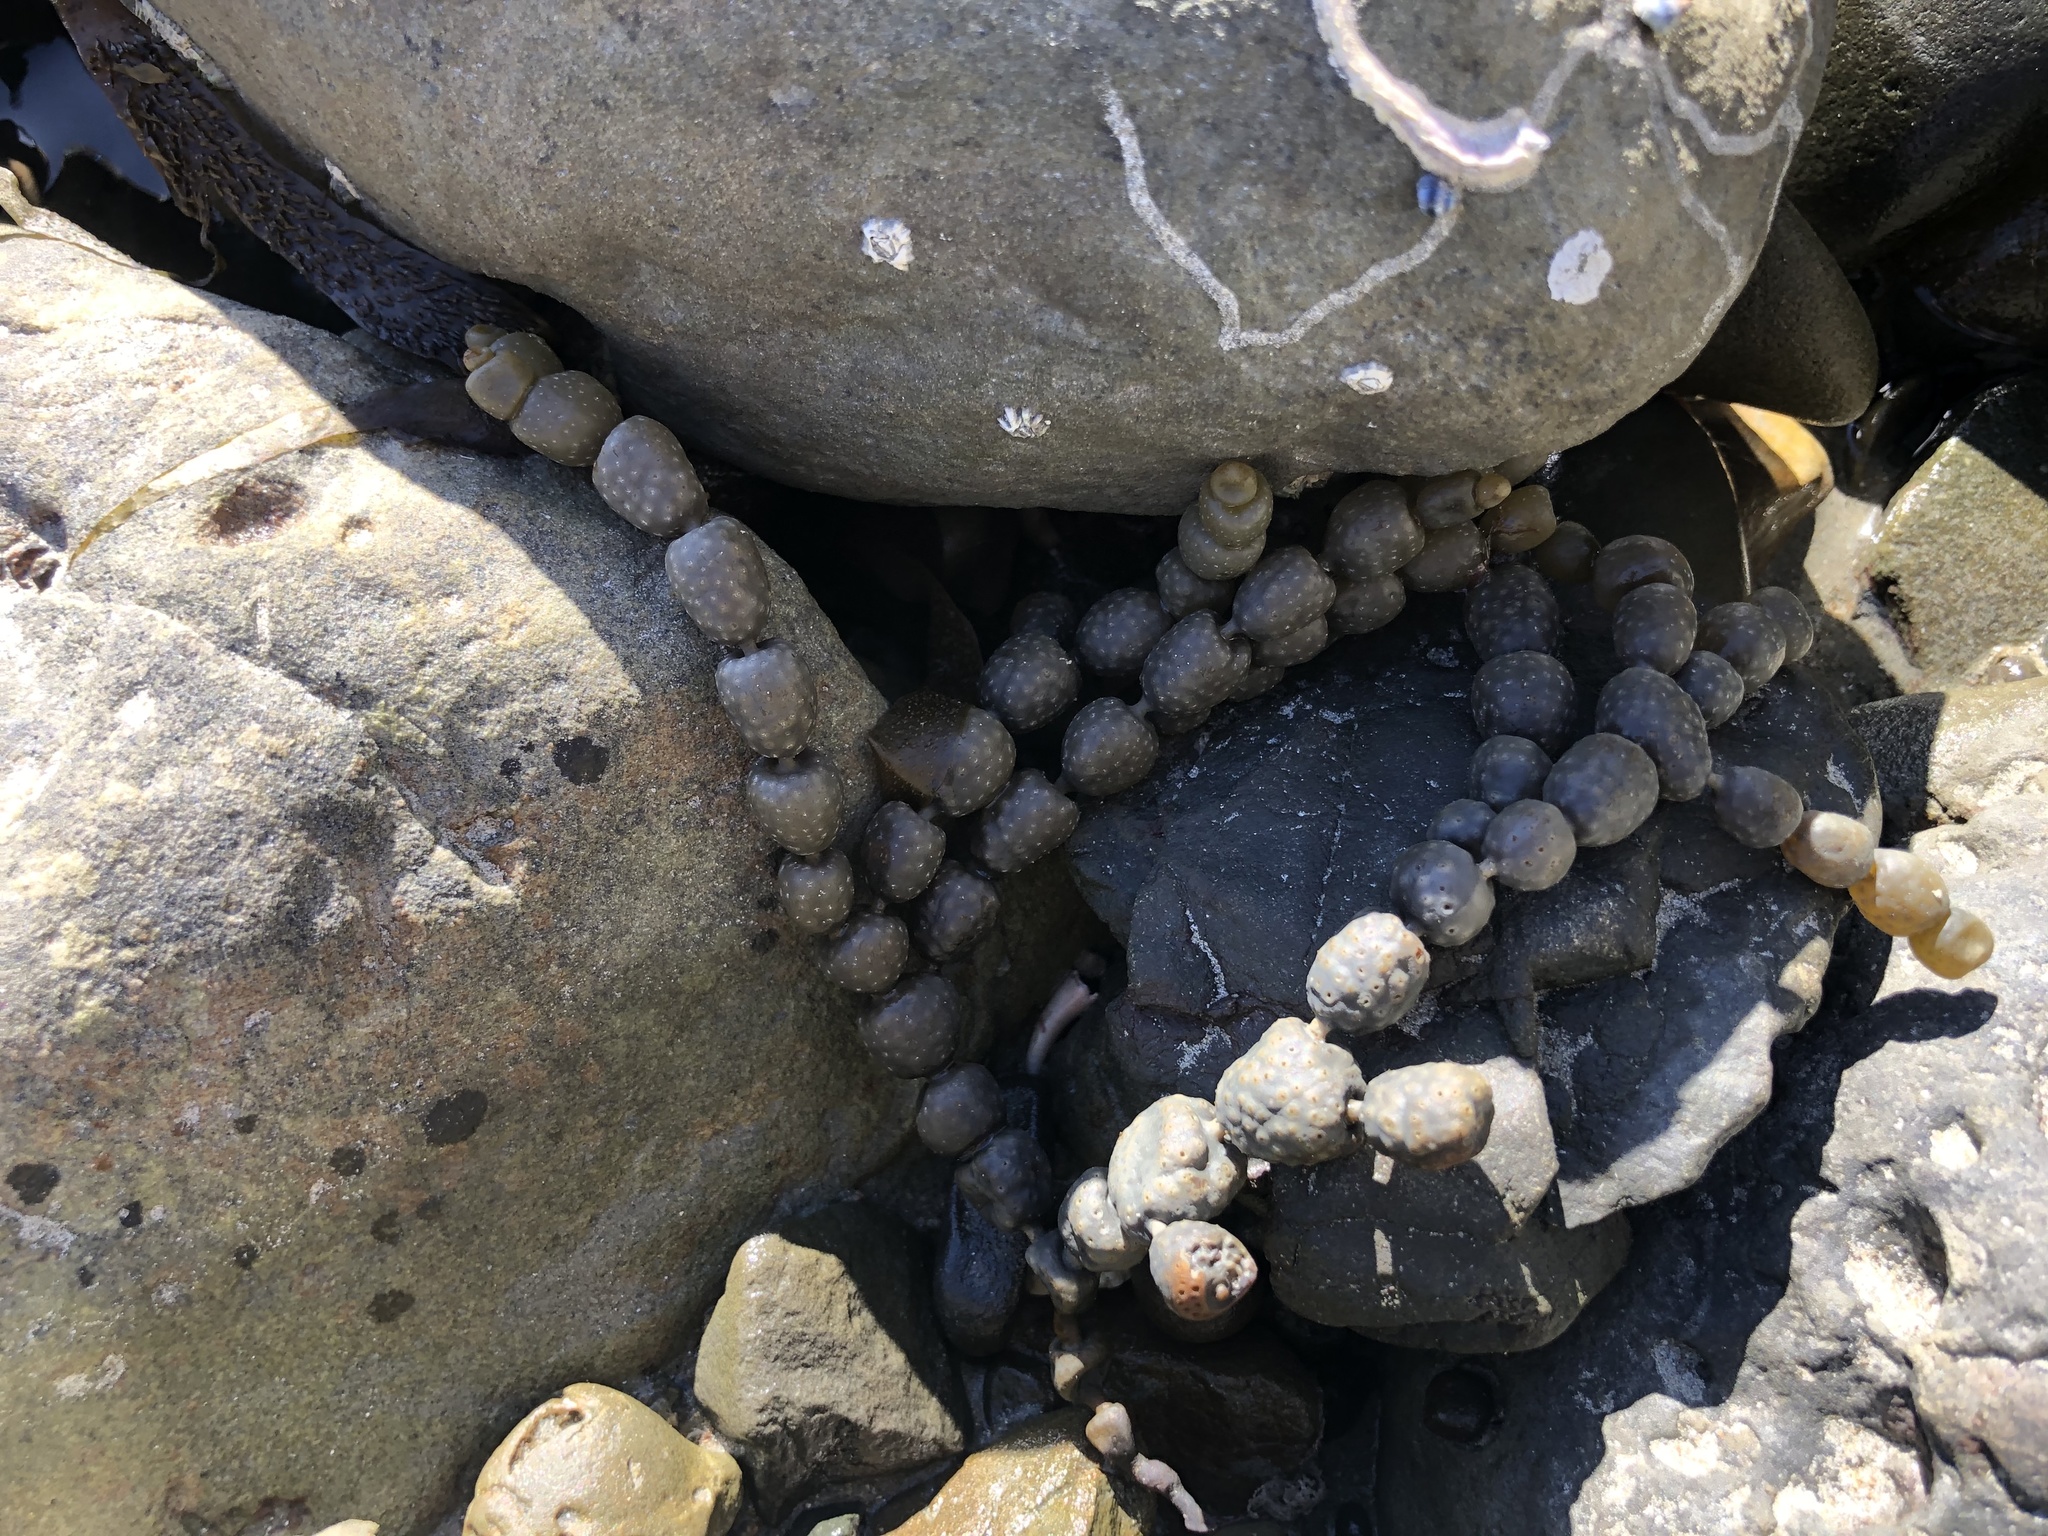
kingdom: Chromista
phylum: Ochrophyta
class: Phaeophyceae
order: Fucales
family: Hormosiraceae
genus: Hormosira
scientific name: Hormosira banksii
